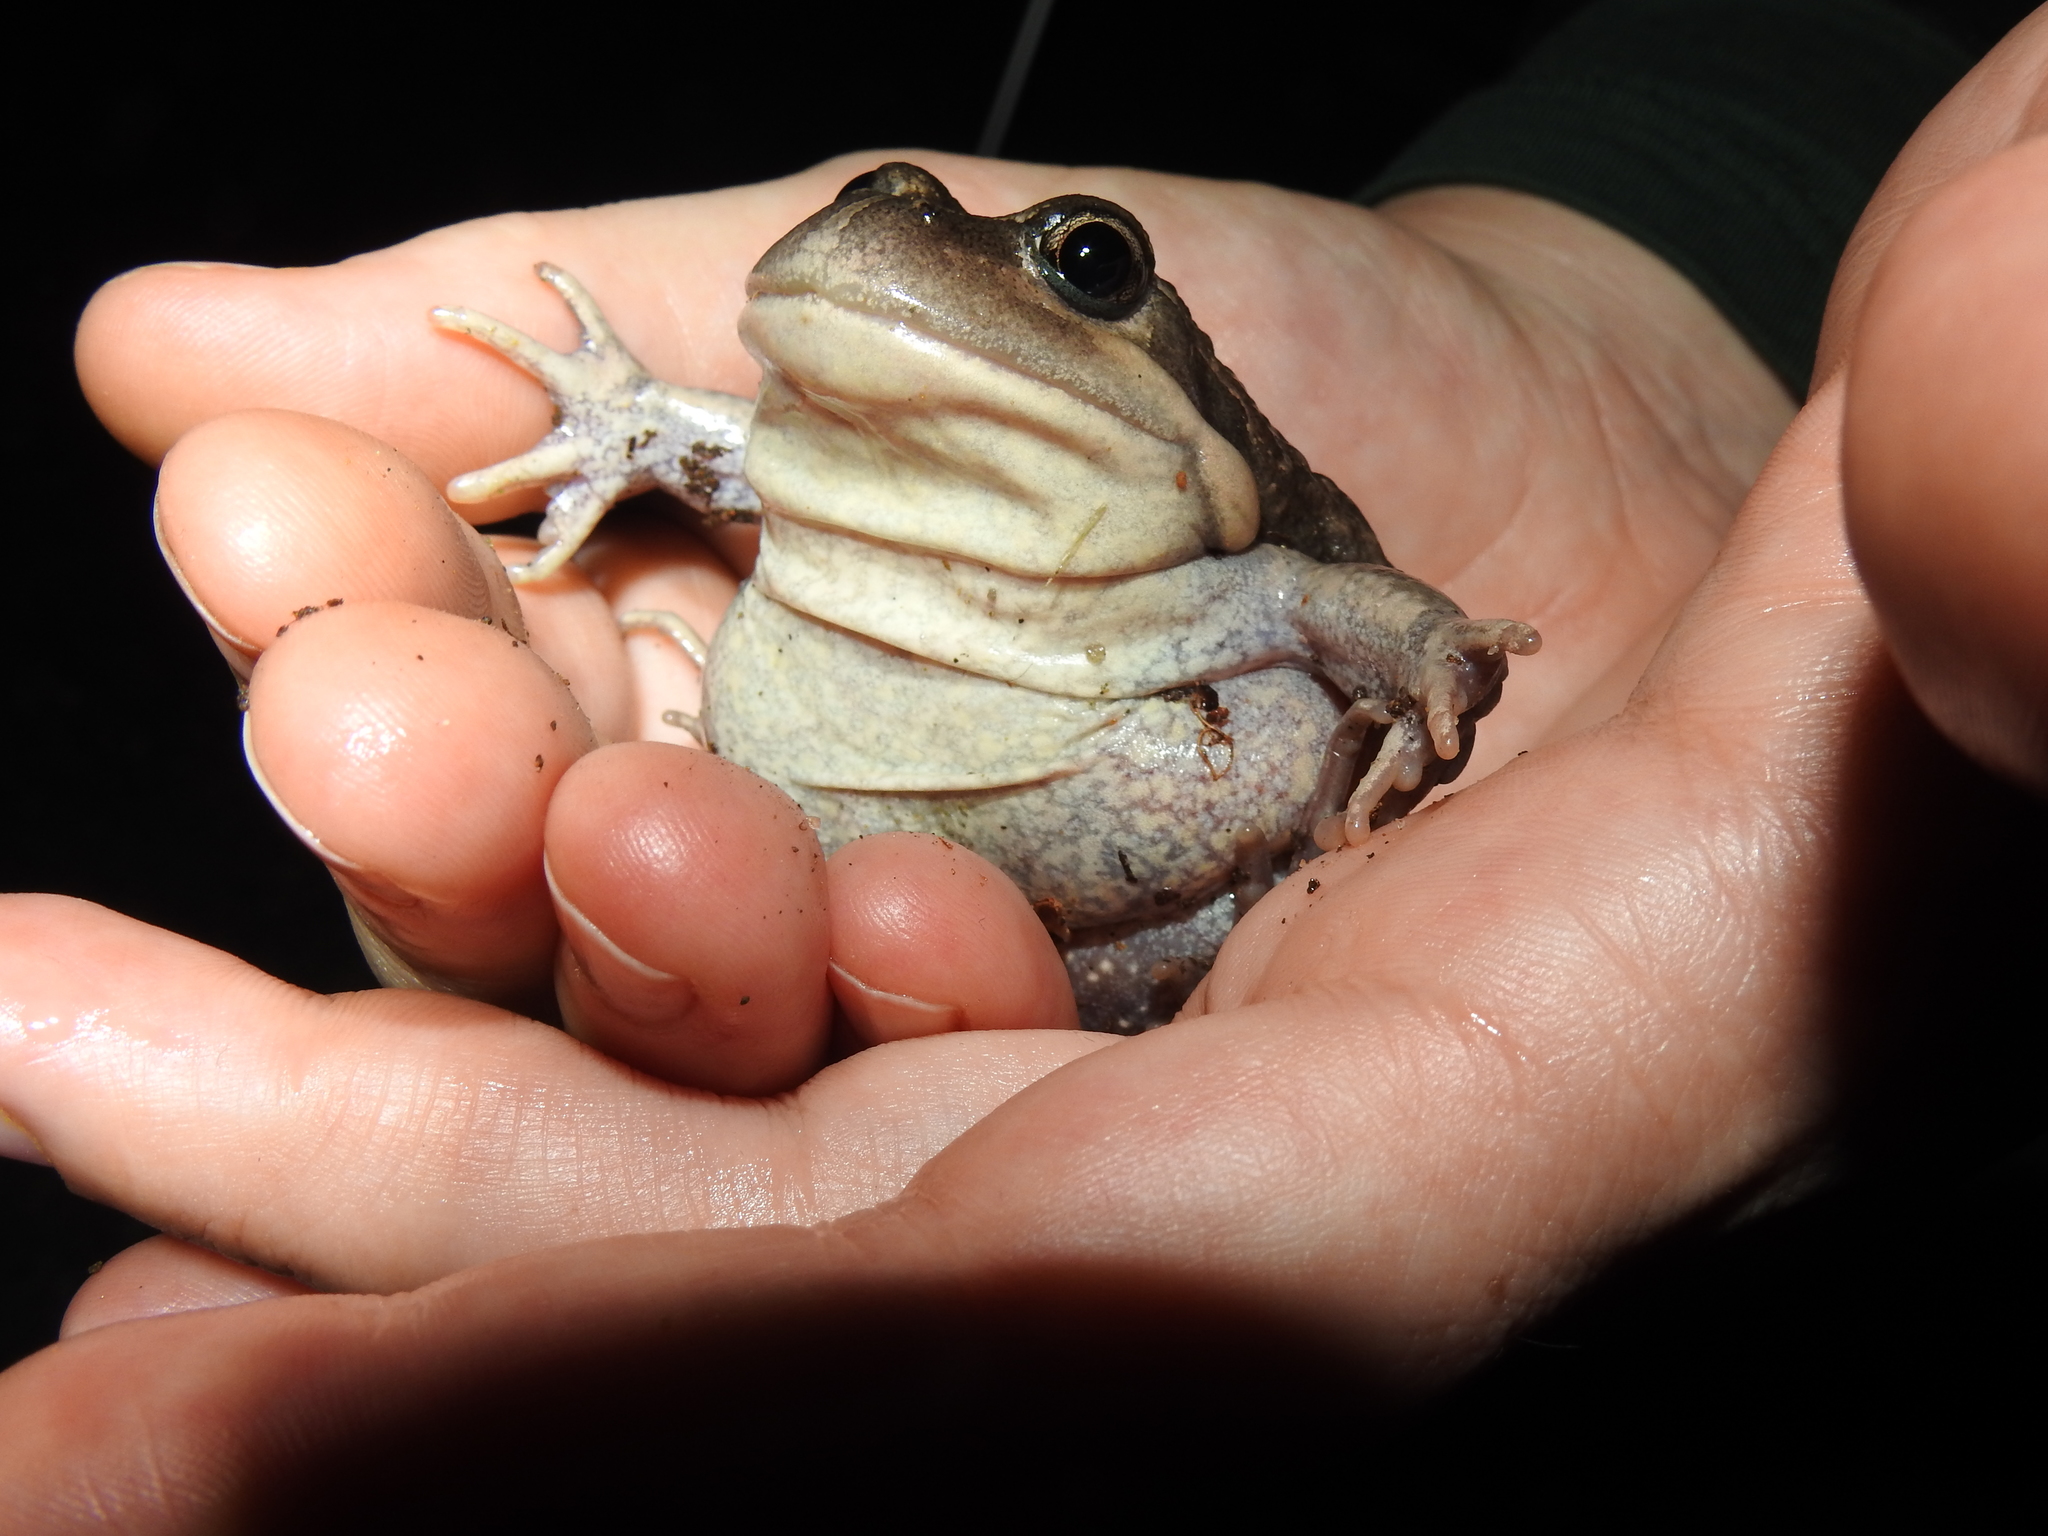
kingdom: Animalia
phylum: Chordata
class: Amphibia
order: Anura
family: Limnodynastidae
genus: Limnodynastes
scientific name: Limnodynastes dumerilii
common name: Banjo frog
